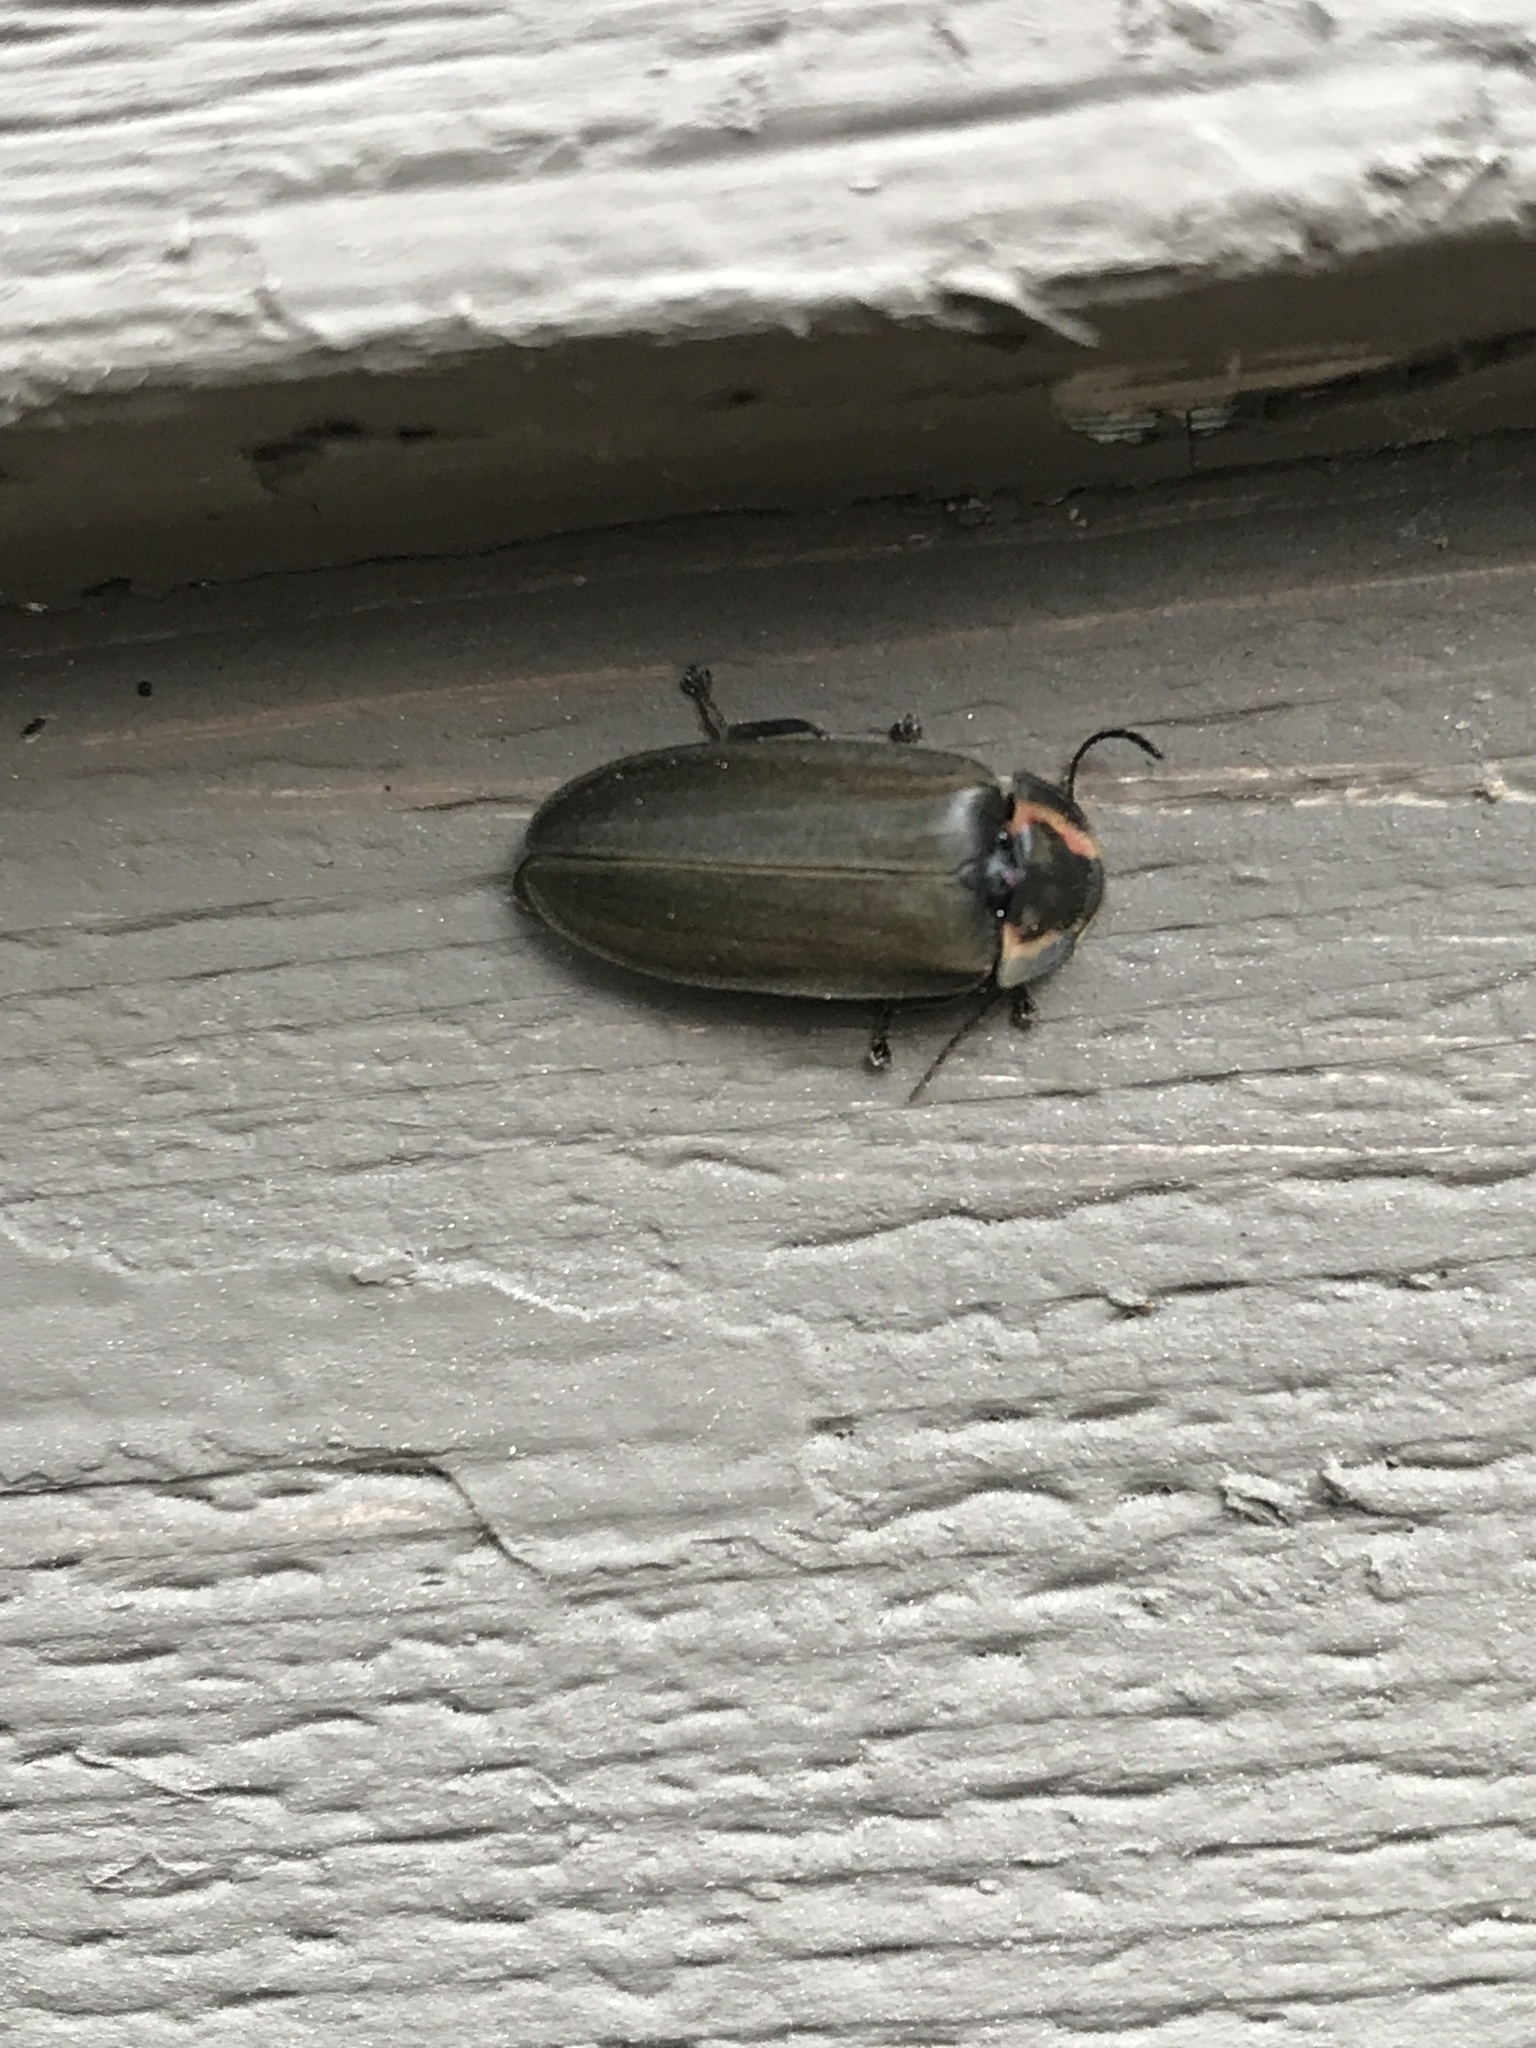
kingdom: Animalia
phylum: Arthropoda
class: Insecta
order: Coleoptera
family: Lampyridae
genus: Photinus
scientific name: Photinus corrusca
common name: Winter firefly
